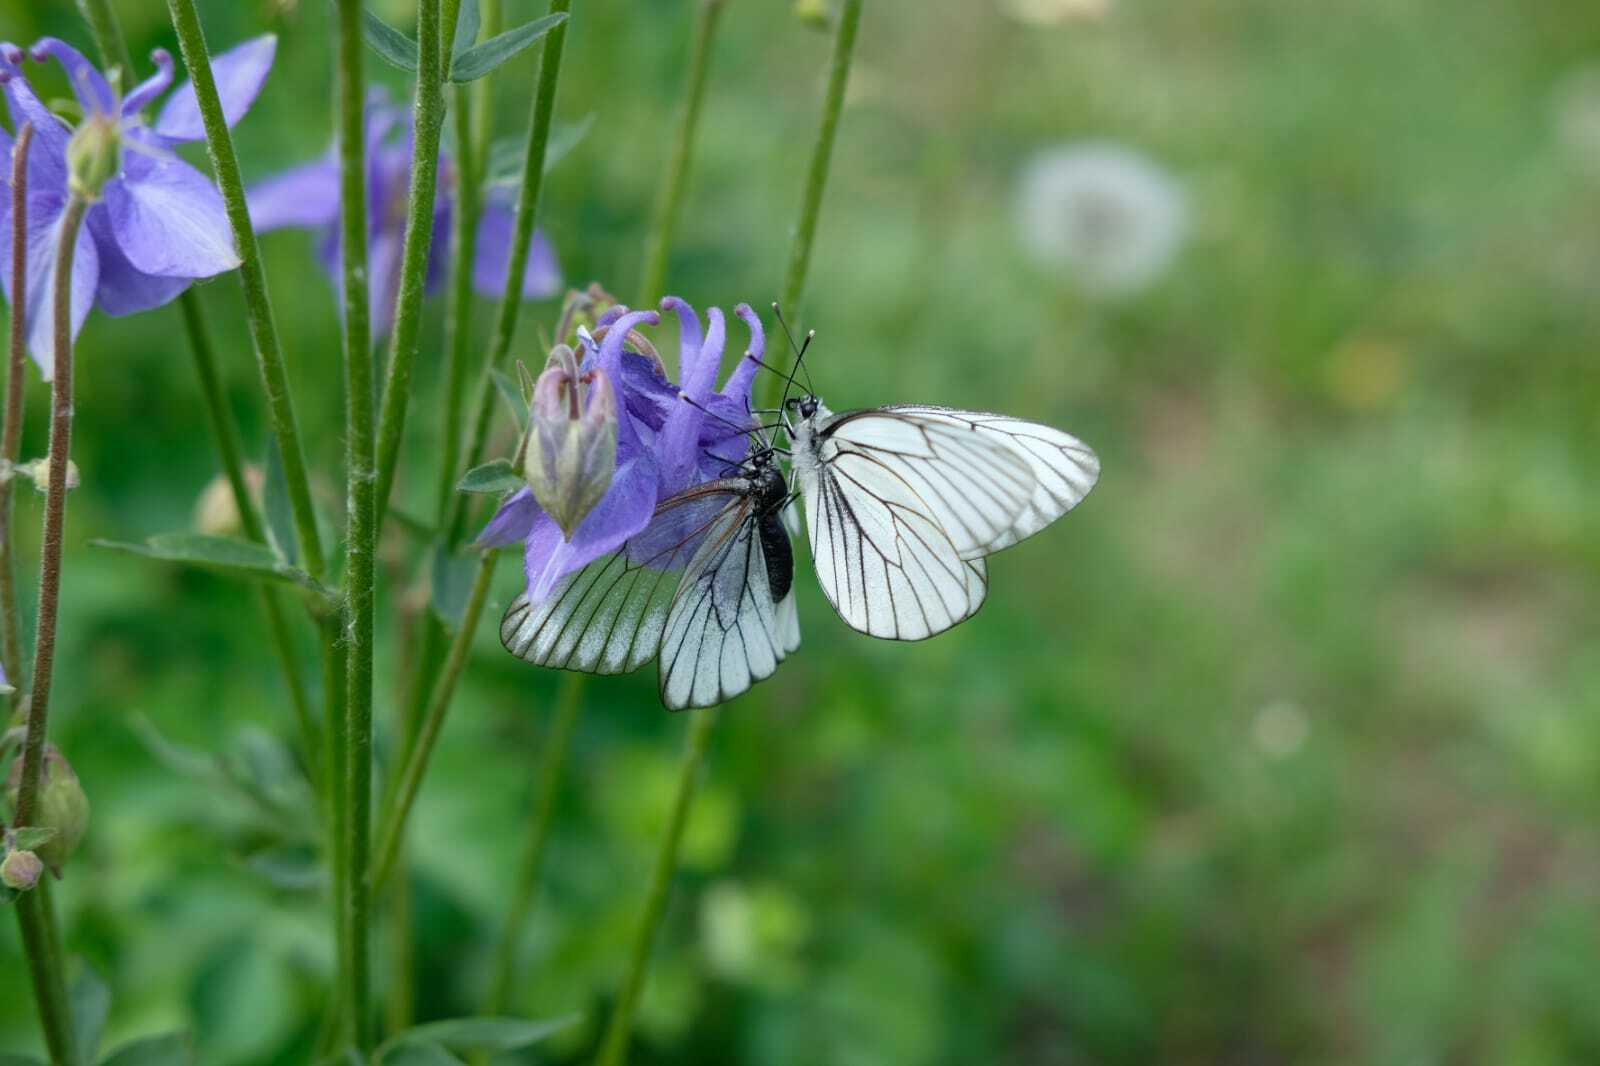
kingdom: Animalia
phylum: Arthropoda
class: Insecta
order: Lepidoptera
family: Pieridae
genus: Aporia
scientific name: Aporia crataegi
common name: Black-veined white
